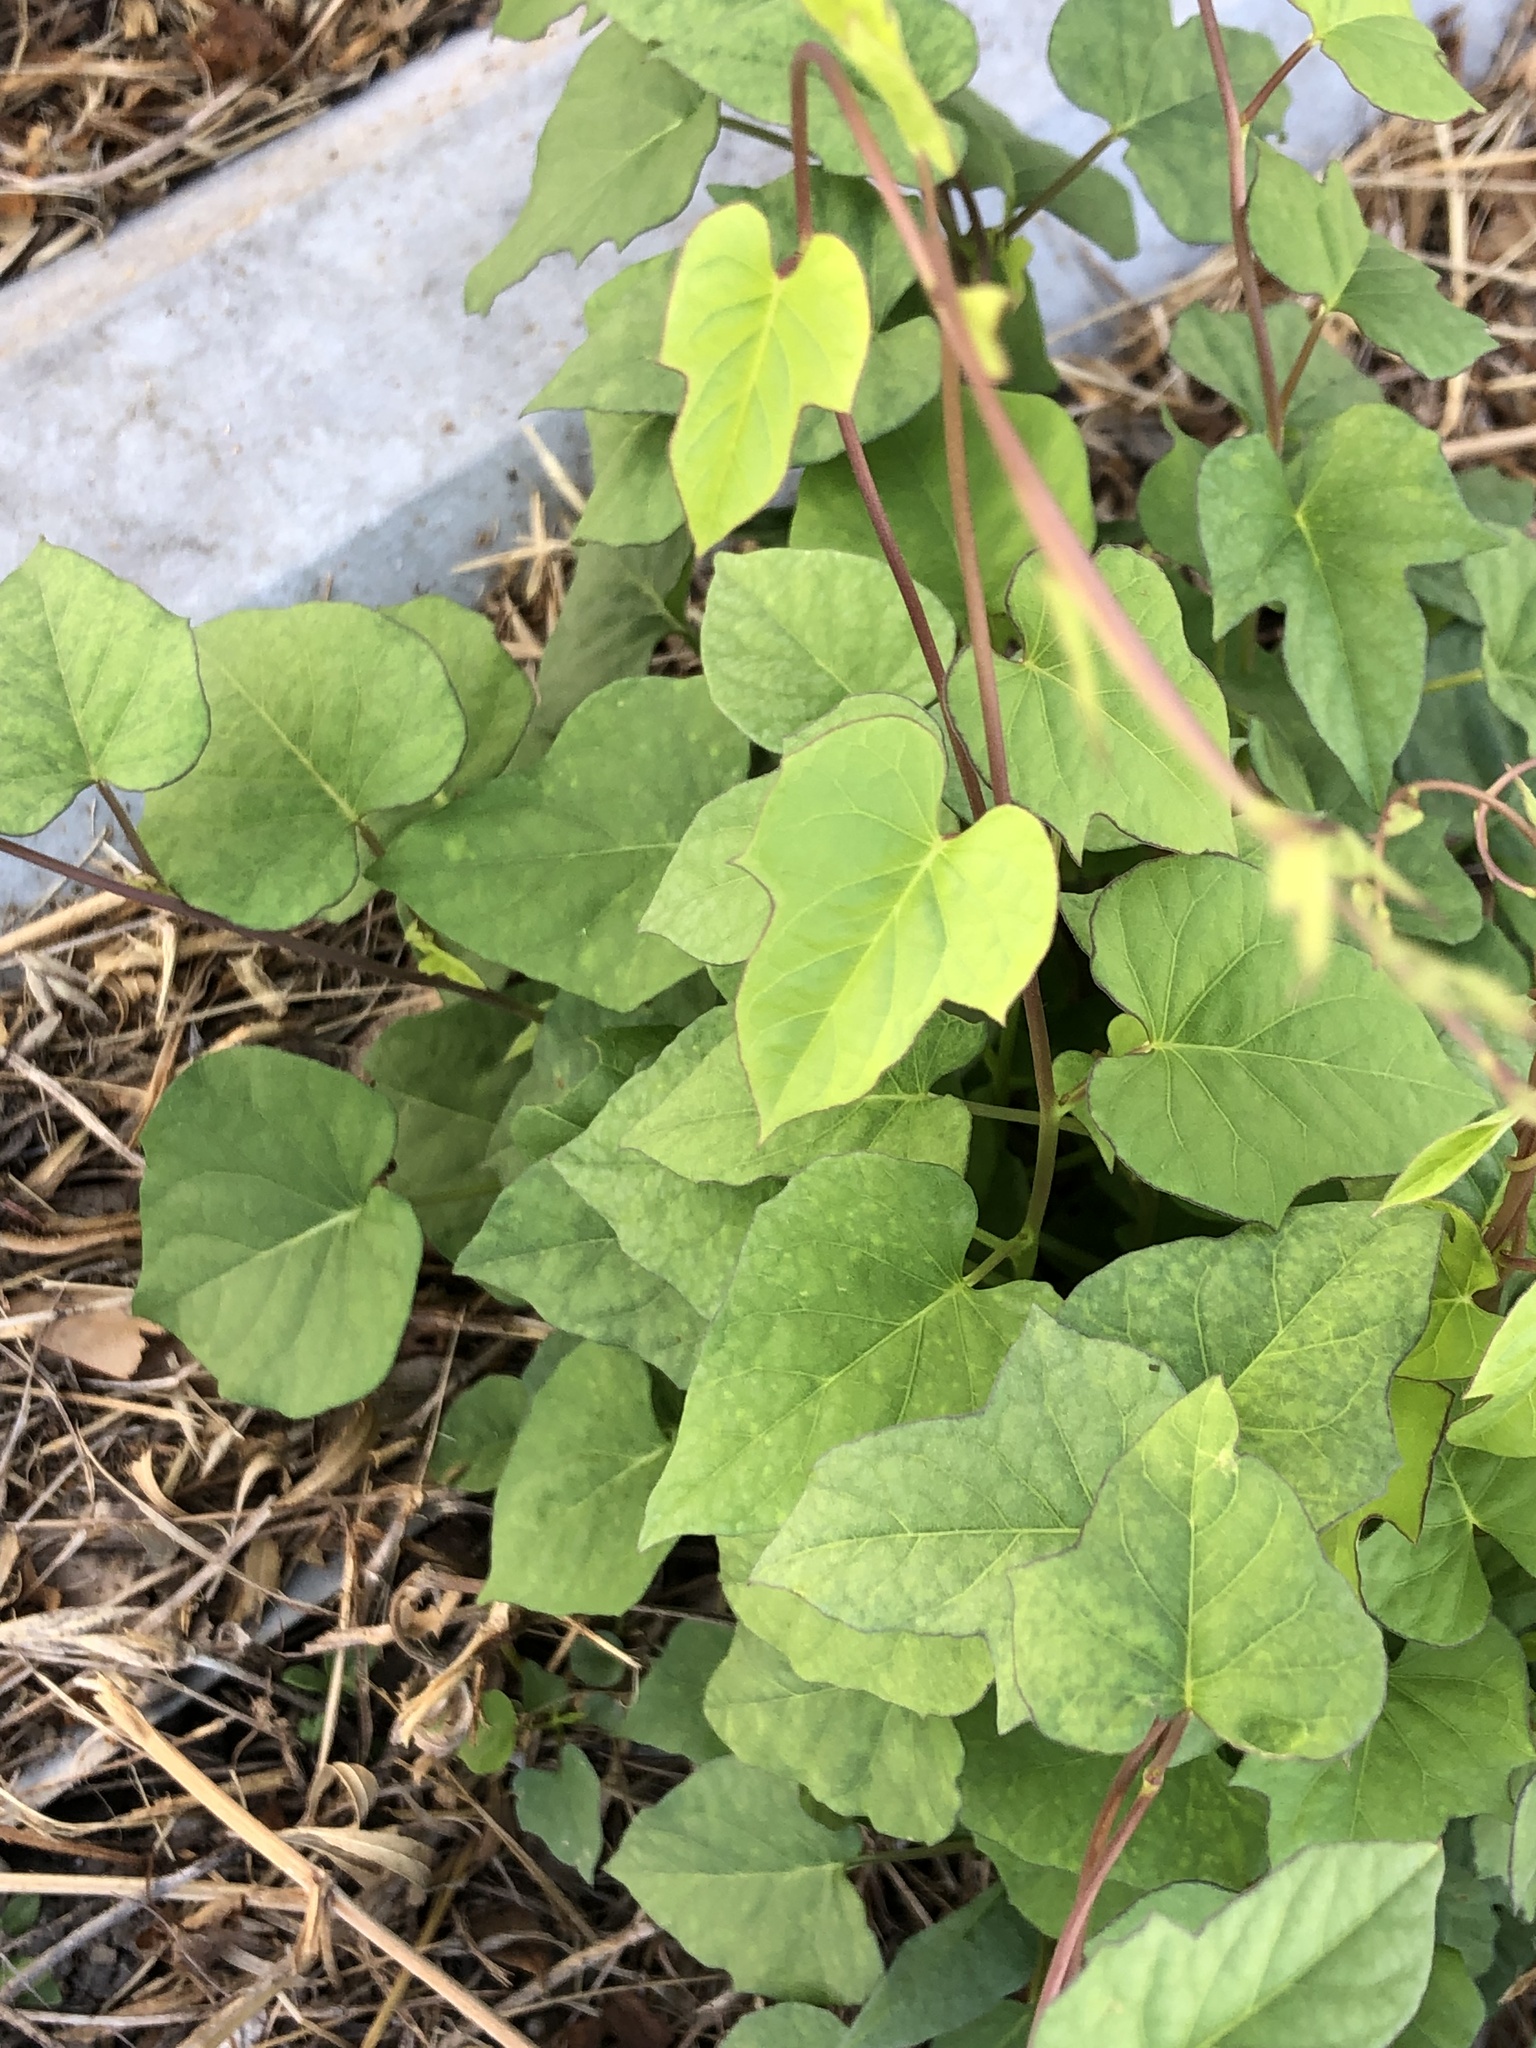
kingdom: Plantae
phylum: Tracheophyta
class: Magnoliopsida
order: Solanales
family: Convolvulaceae
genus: Ipomoea
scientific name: Ipomoea cordatotriloba
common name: Cotton morning glory
